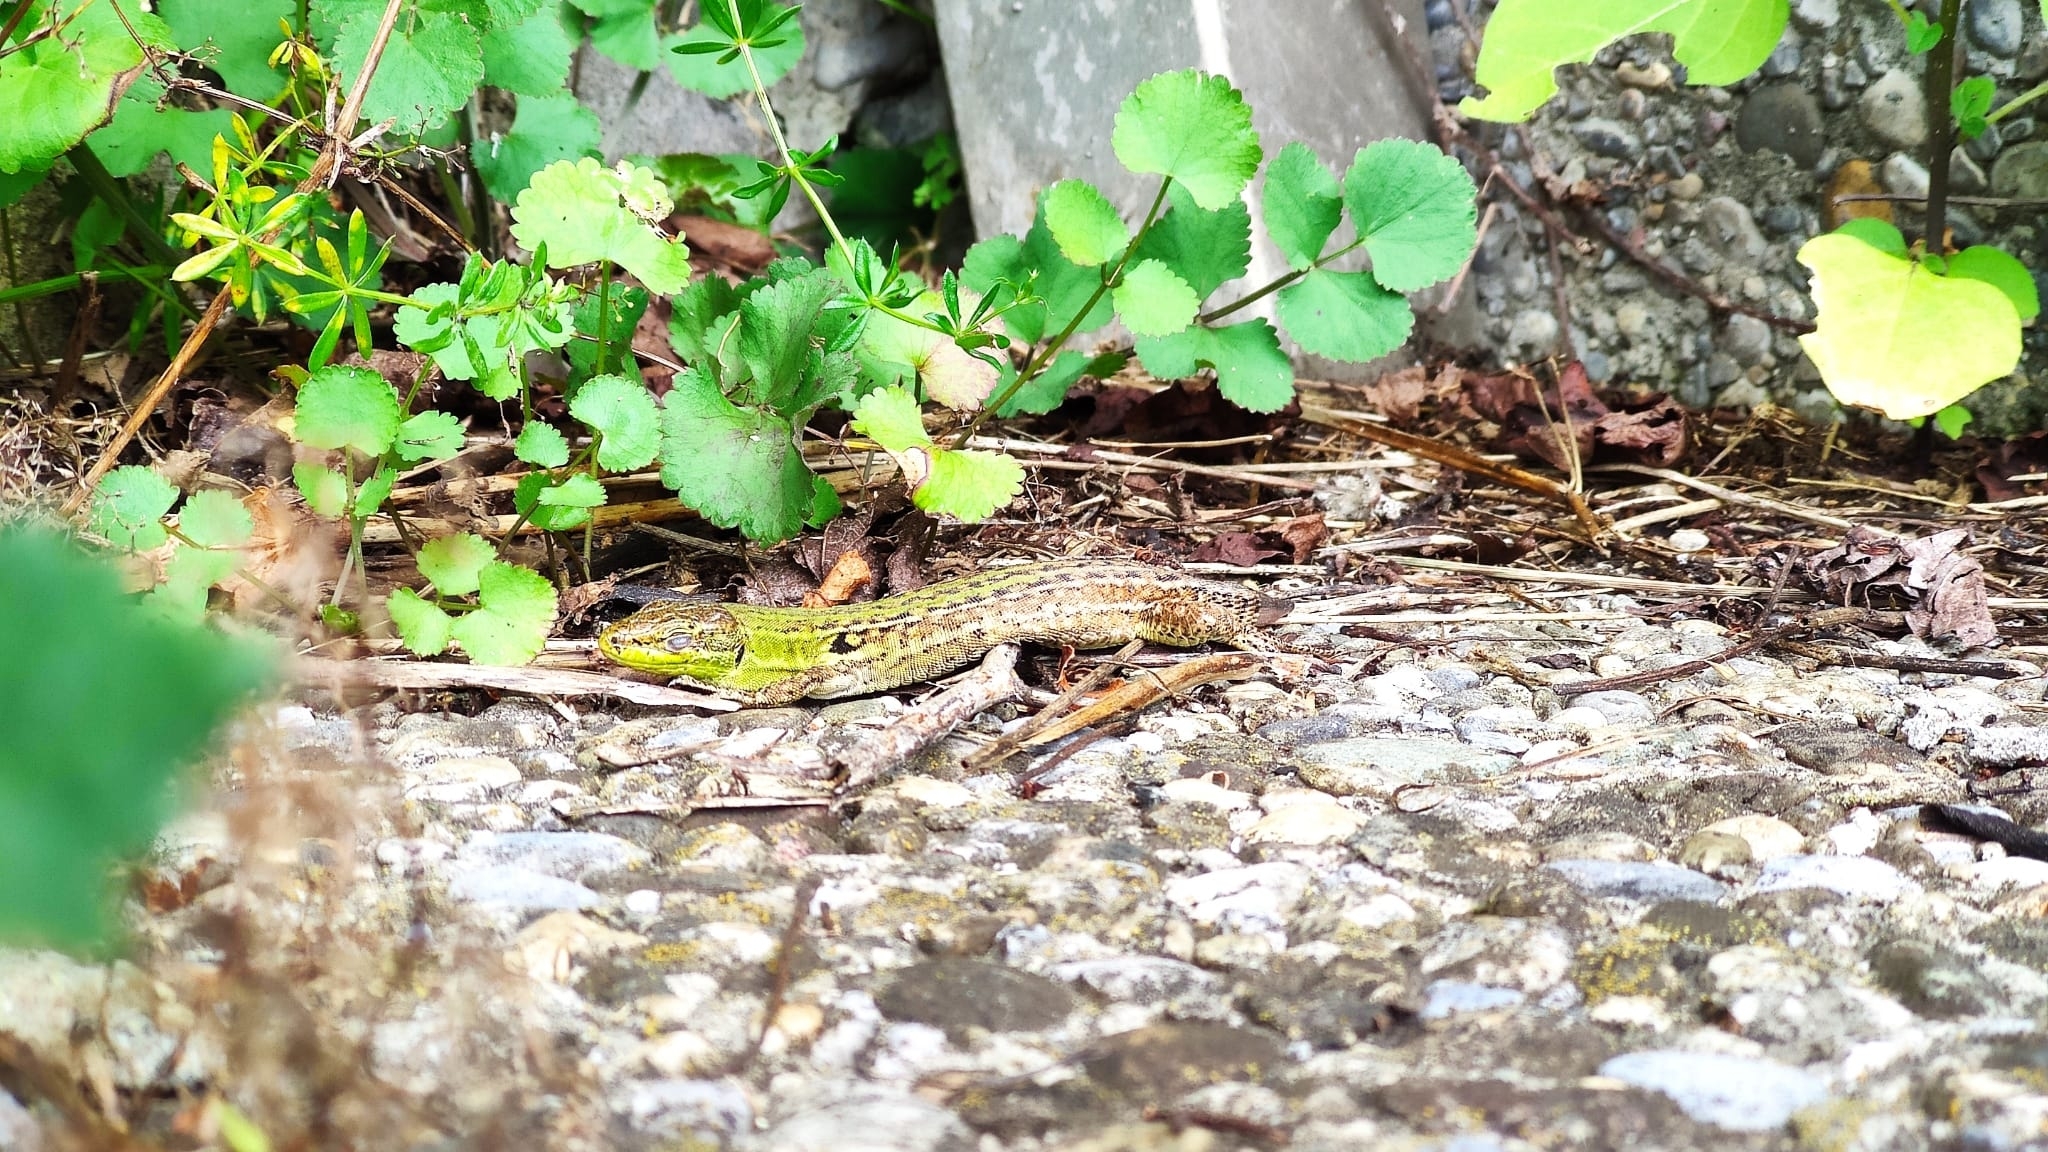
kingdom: Animalia
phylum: Chordata
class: Squamata
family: Lacertidae
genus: Podarcis
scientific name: Podarcis siculus
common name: Italian wall lizard
